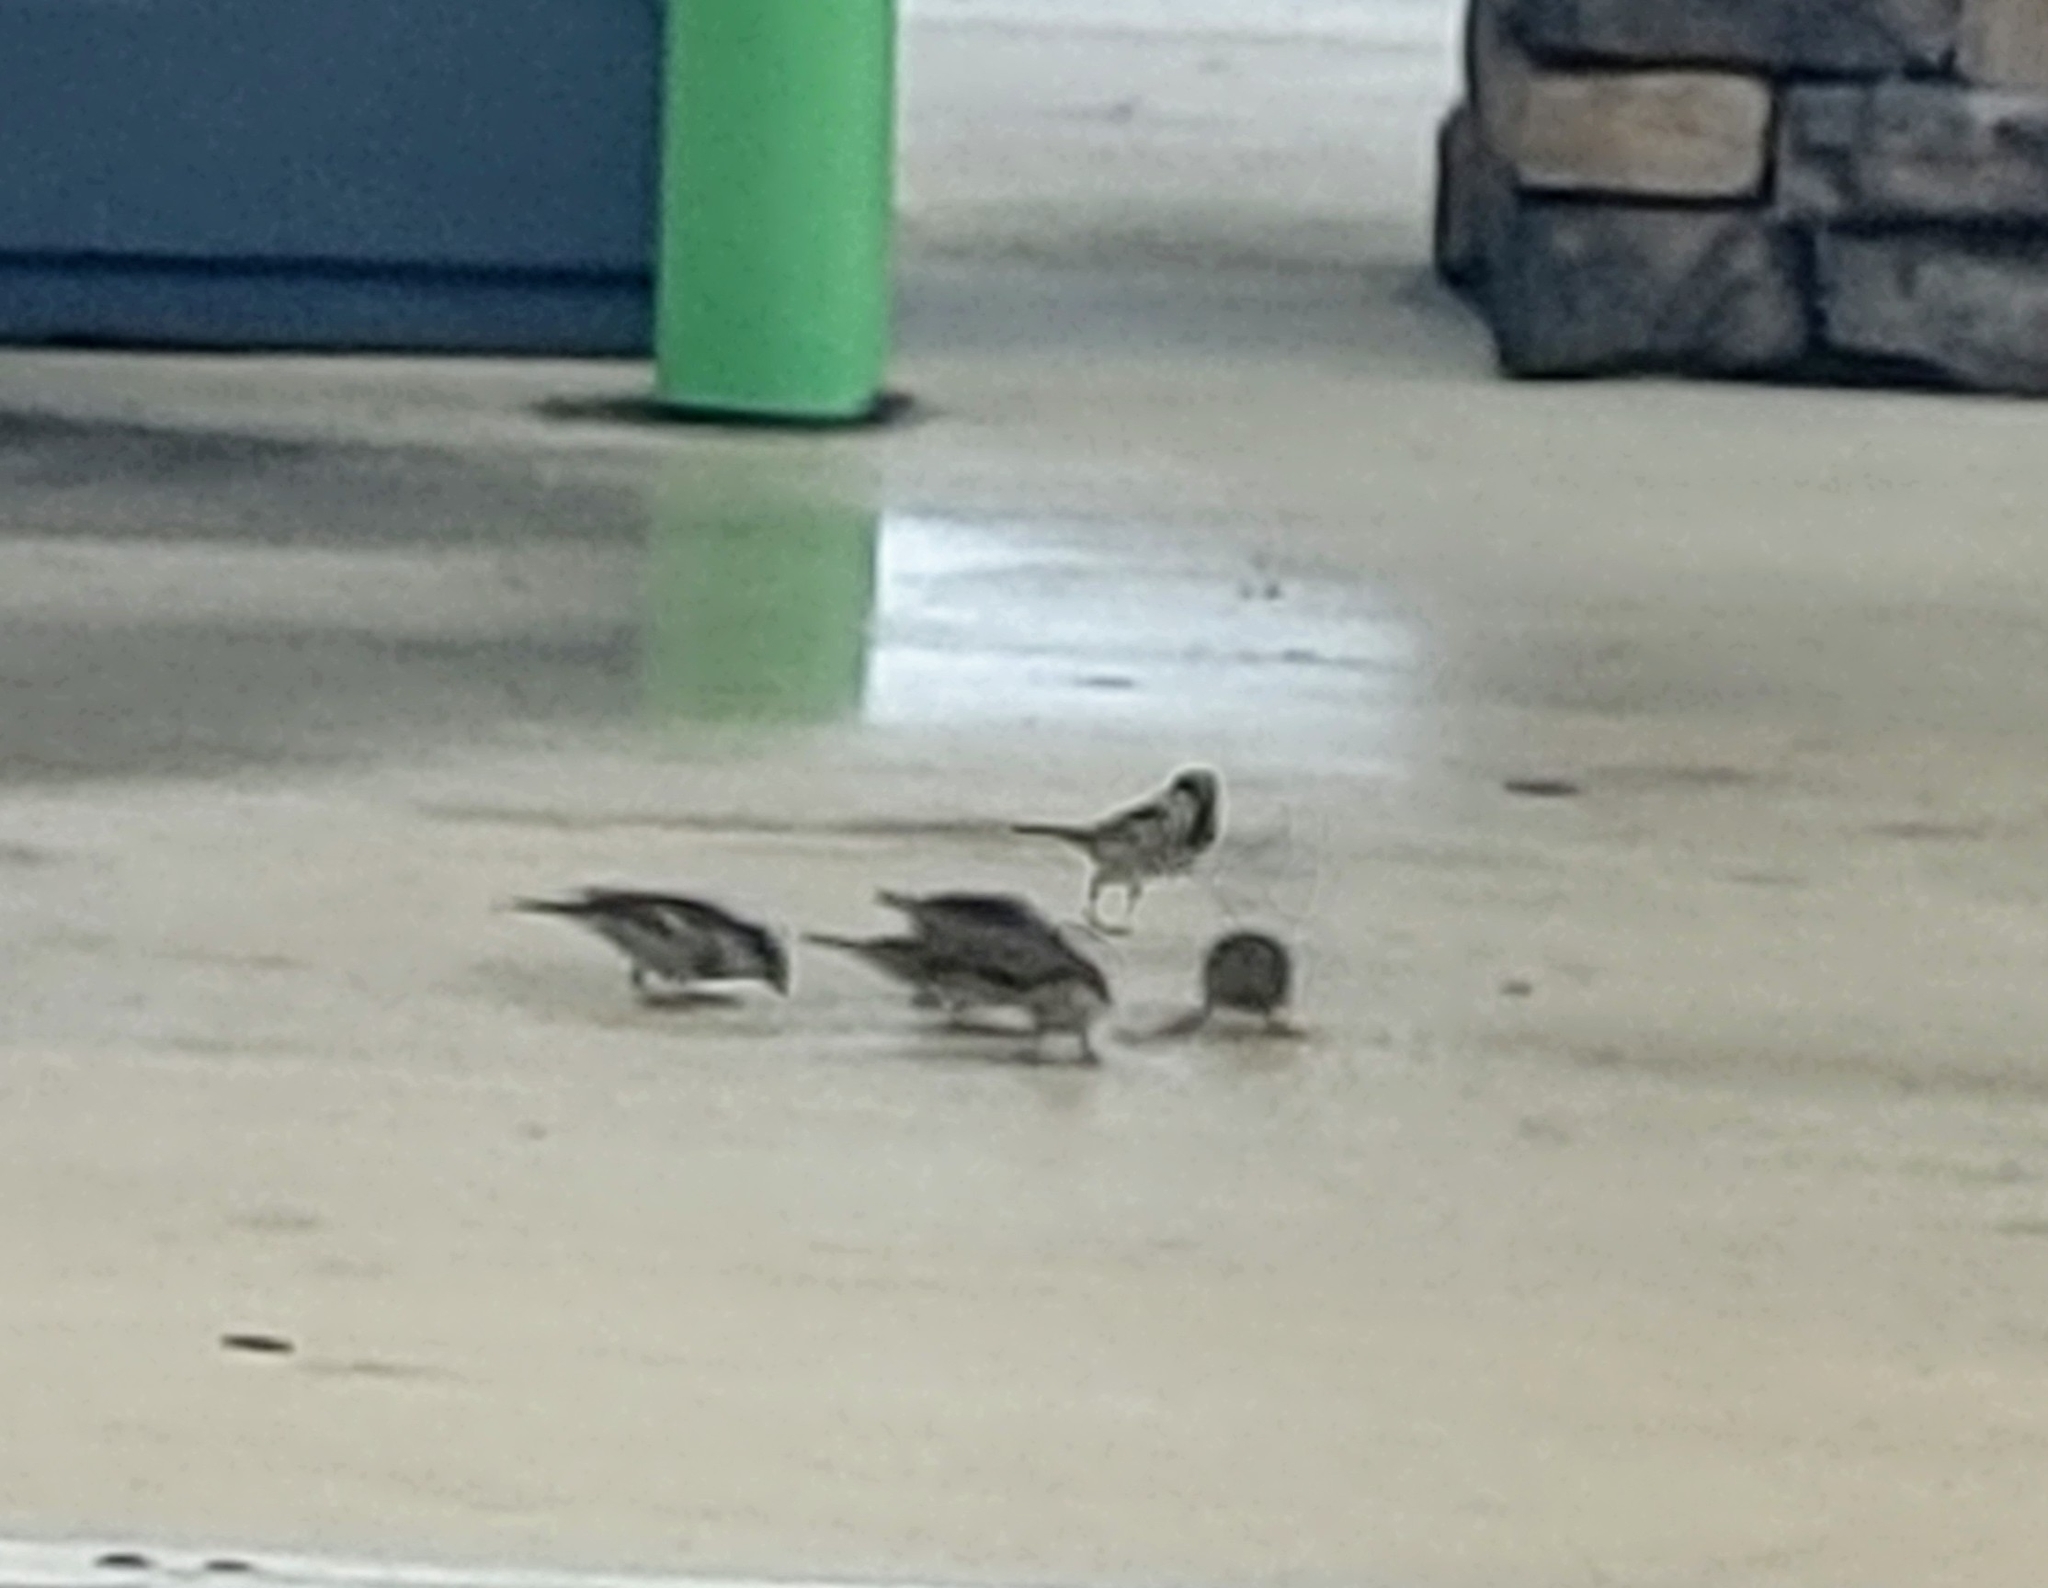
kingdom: Animalia
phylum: Chordata
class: Aves
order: Passeriformes
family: Passeridae
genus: Passer
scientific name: Passer domesticus
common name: House sparrow
